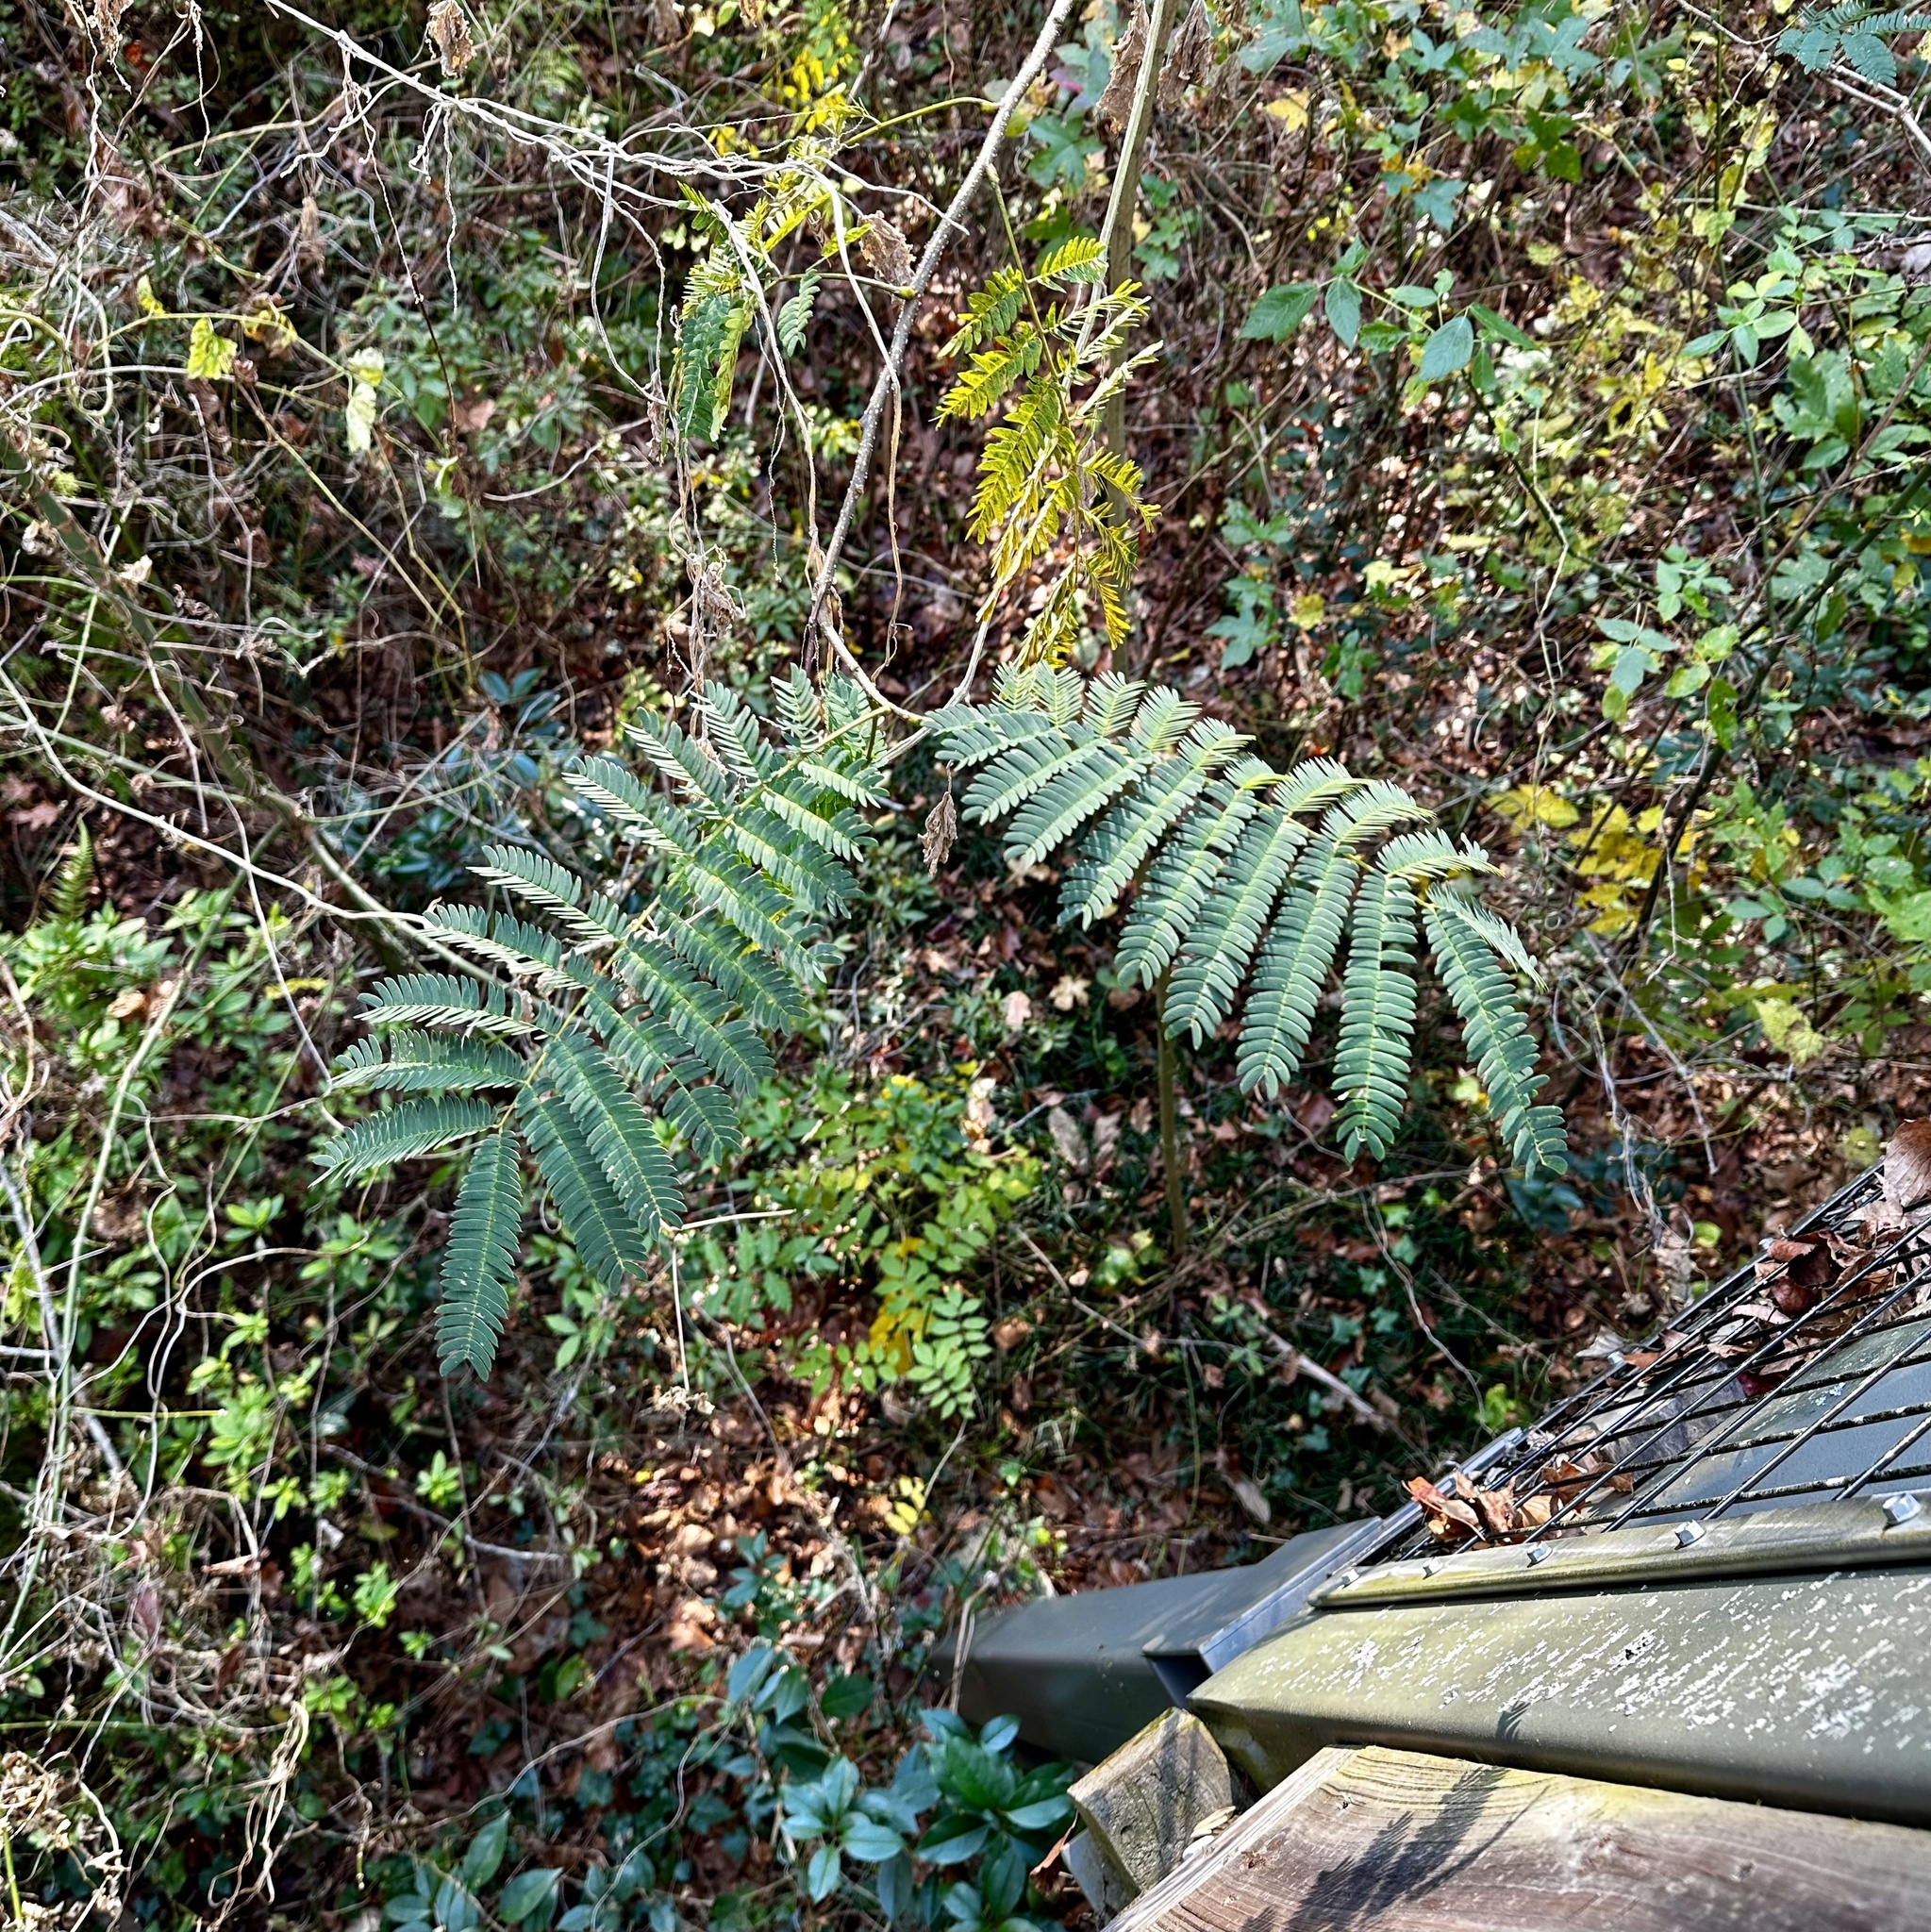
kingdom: Plantae
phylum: Tracheophyta
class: Magnoliopsida
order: Fabales
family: Fabaceae
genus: Albizia
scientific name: Albizia julibrissin
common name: Silktree
